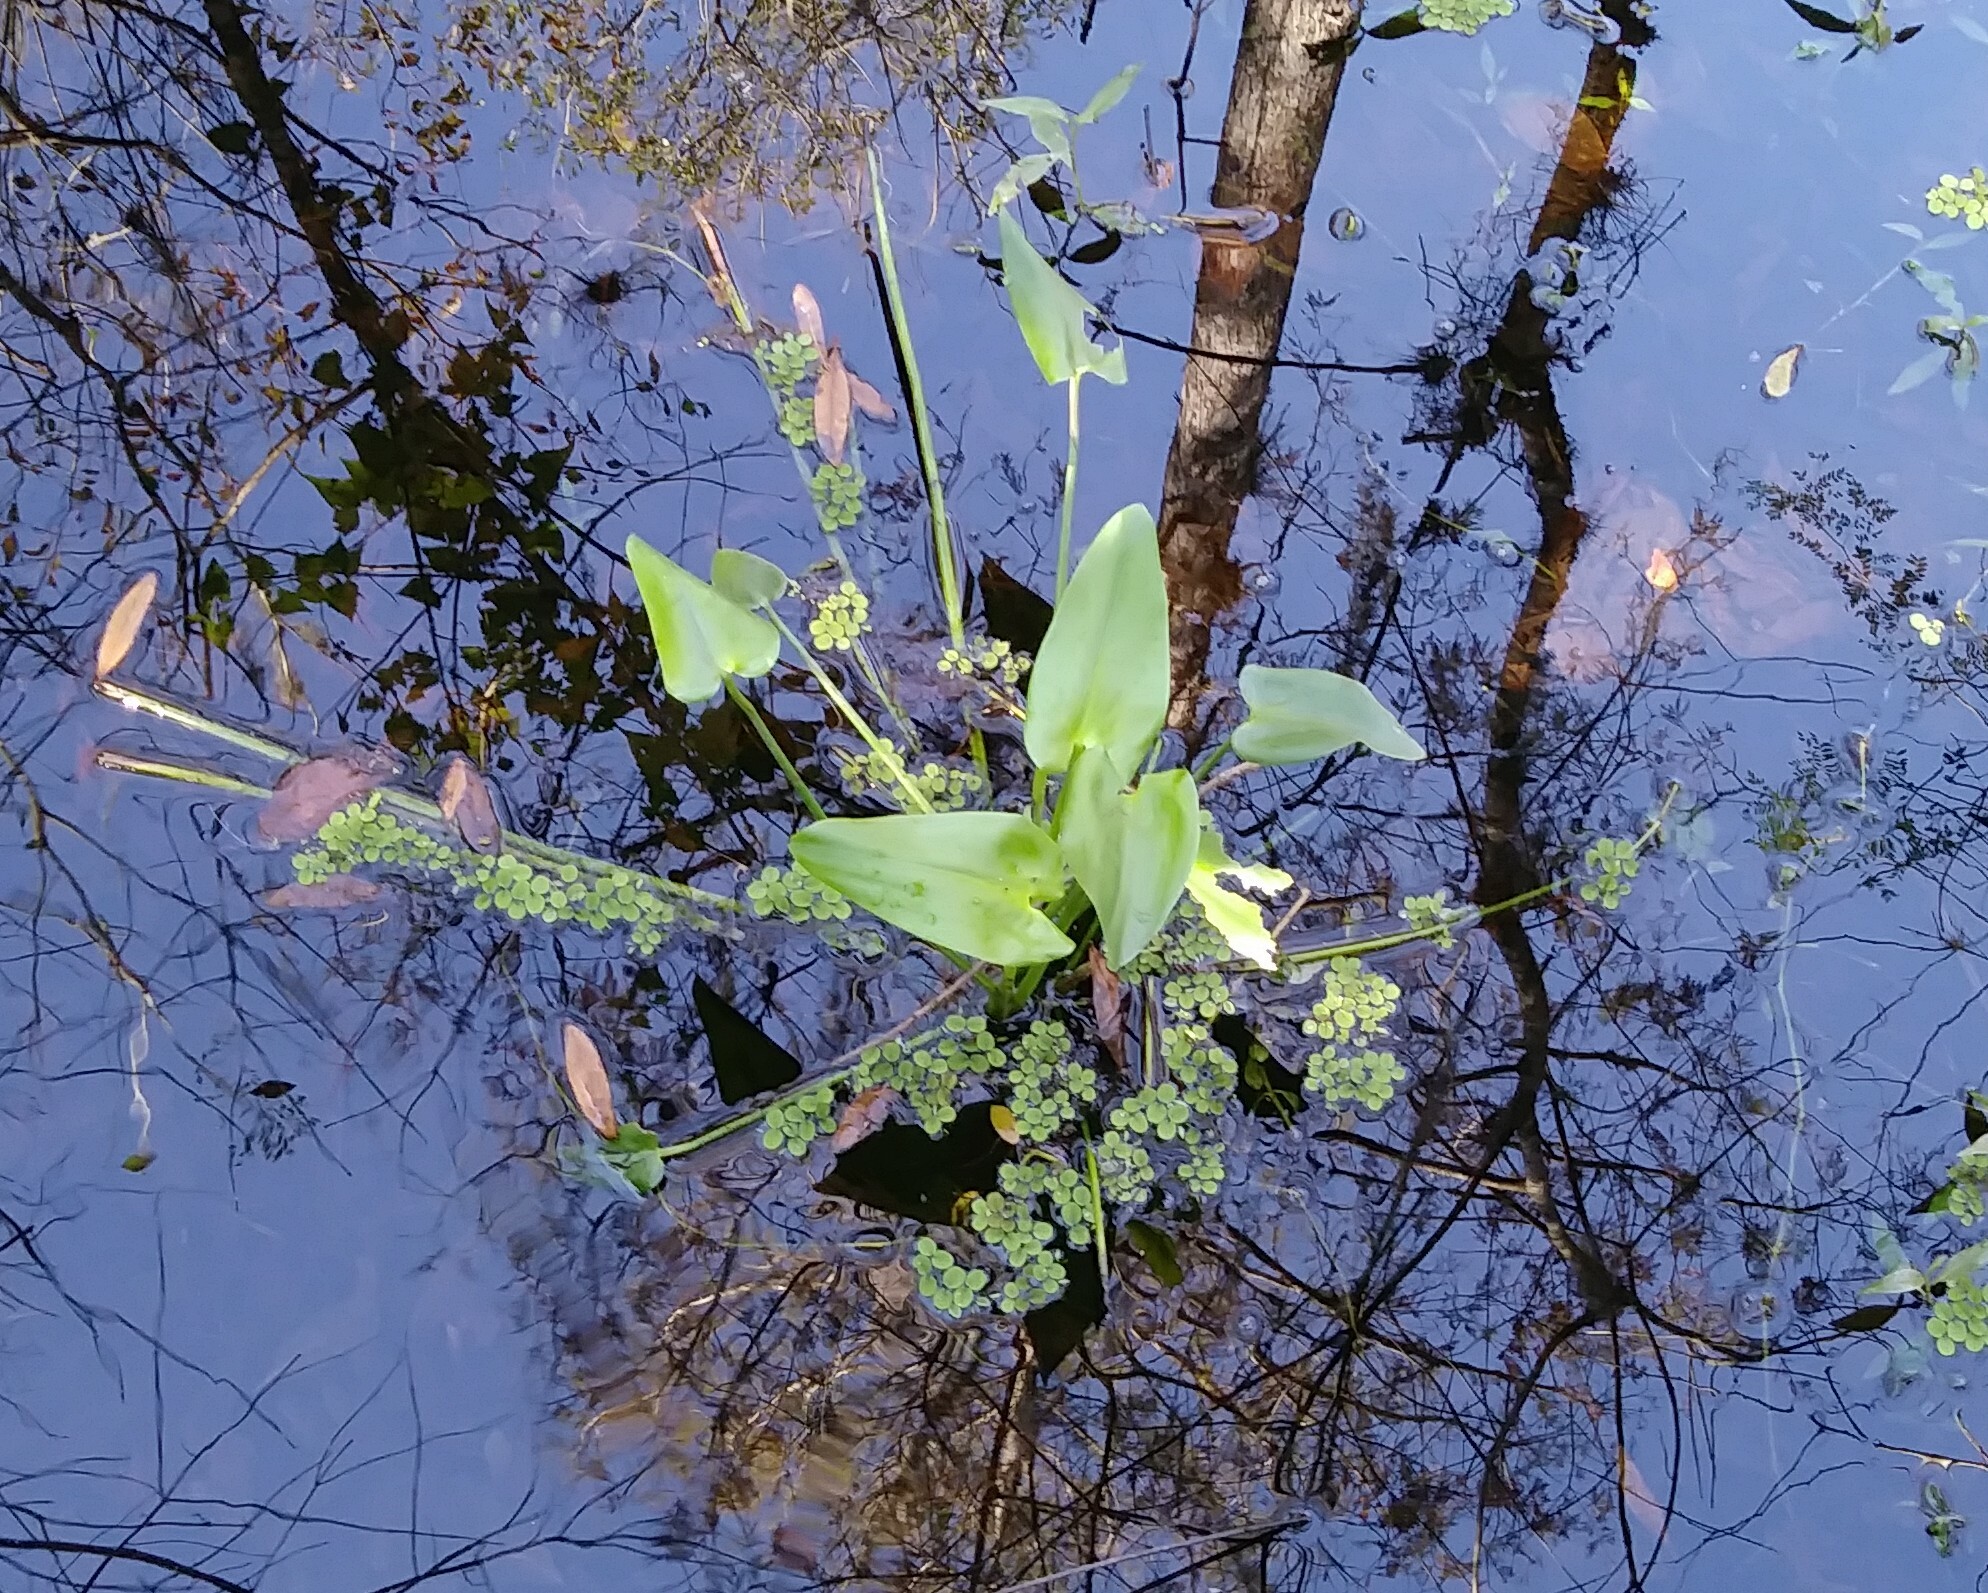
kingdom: Plantae
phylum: Tracheophyta
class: Liliopsida
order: Commelinales
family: Pontederiaceae
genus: Pontederia
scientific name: Pontederia cordata
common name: Pickerelweed
